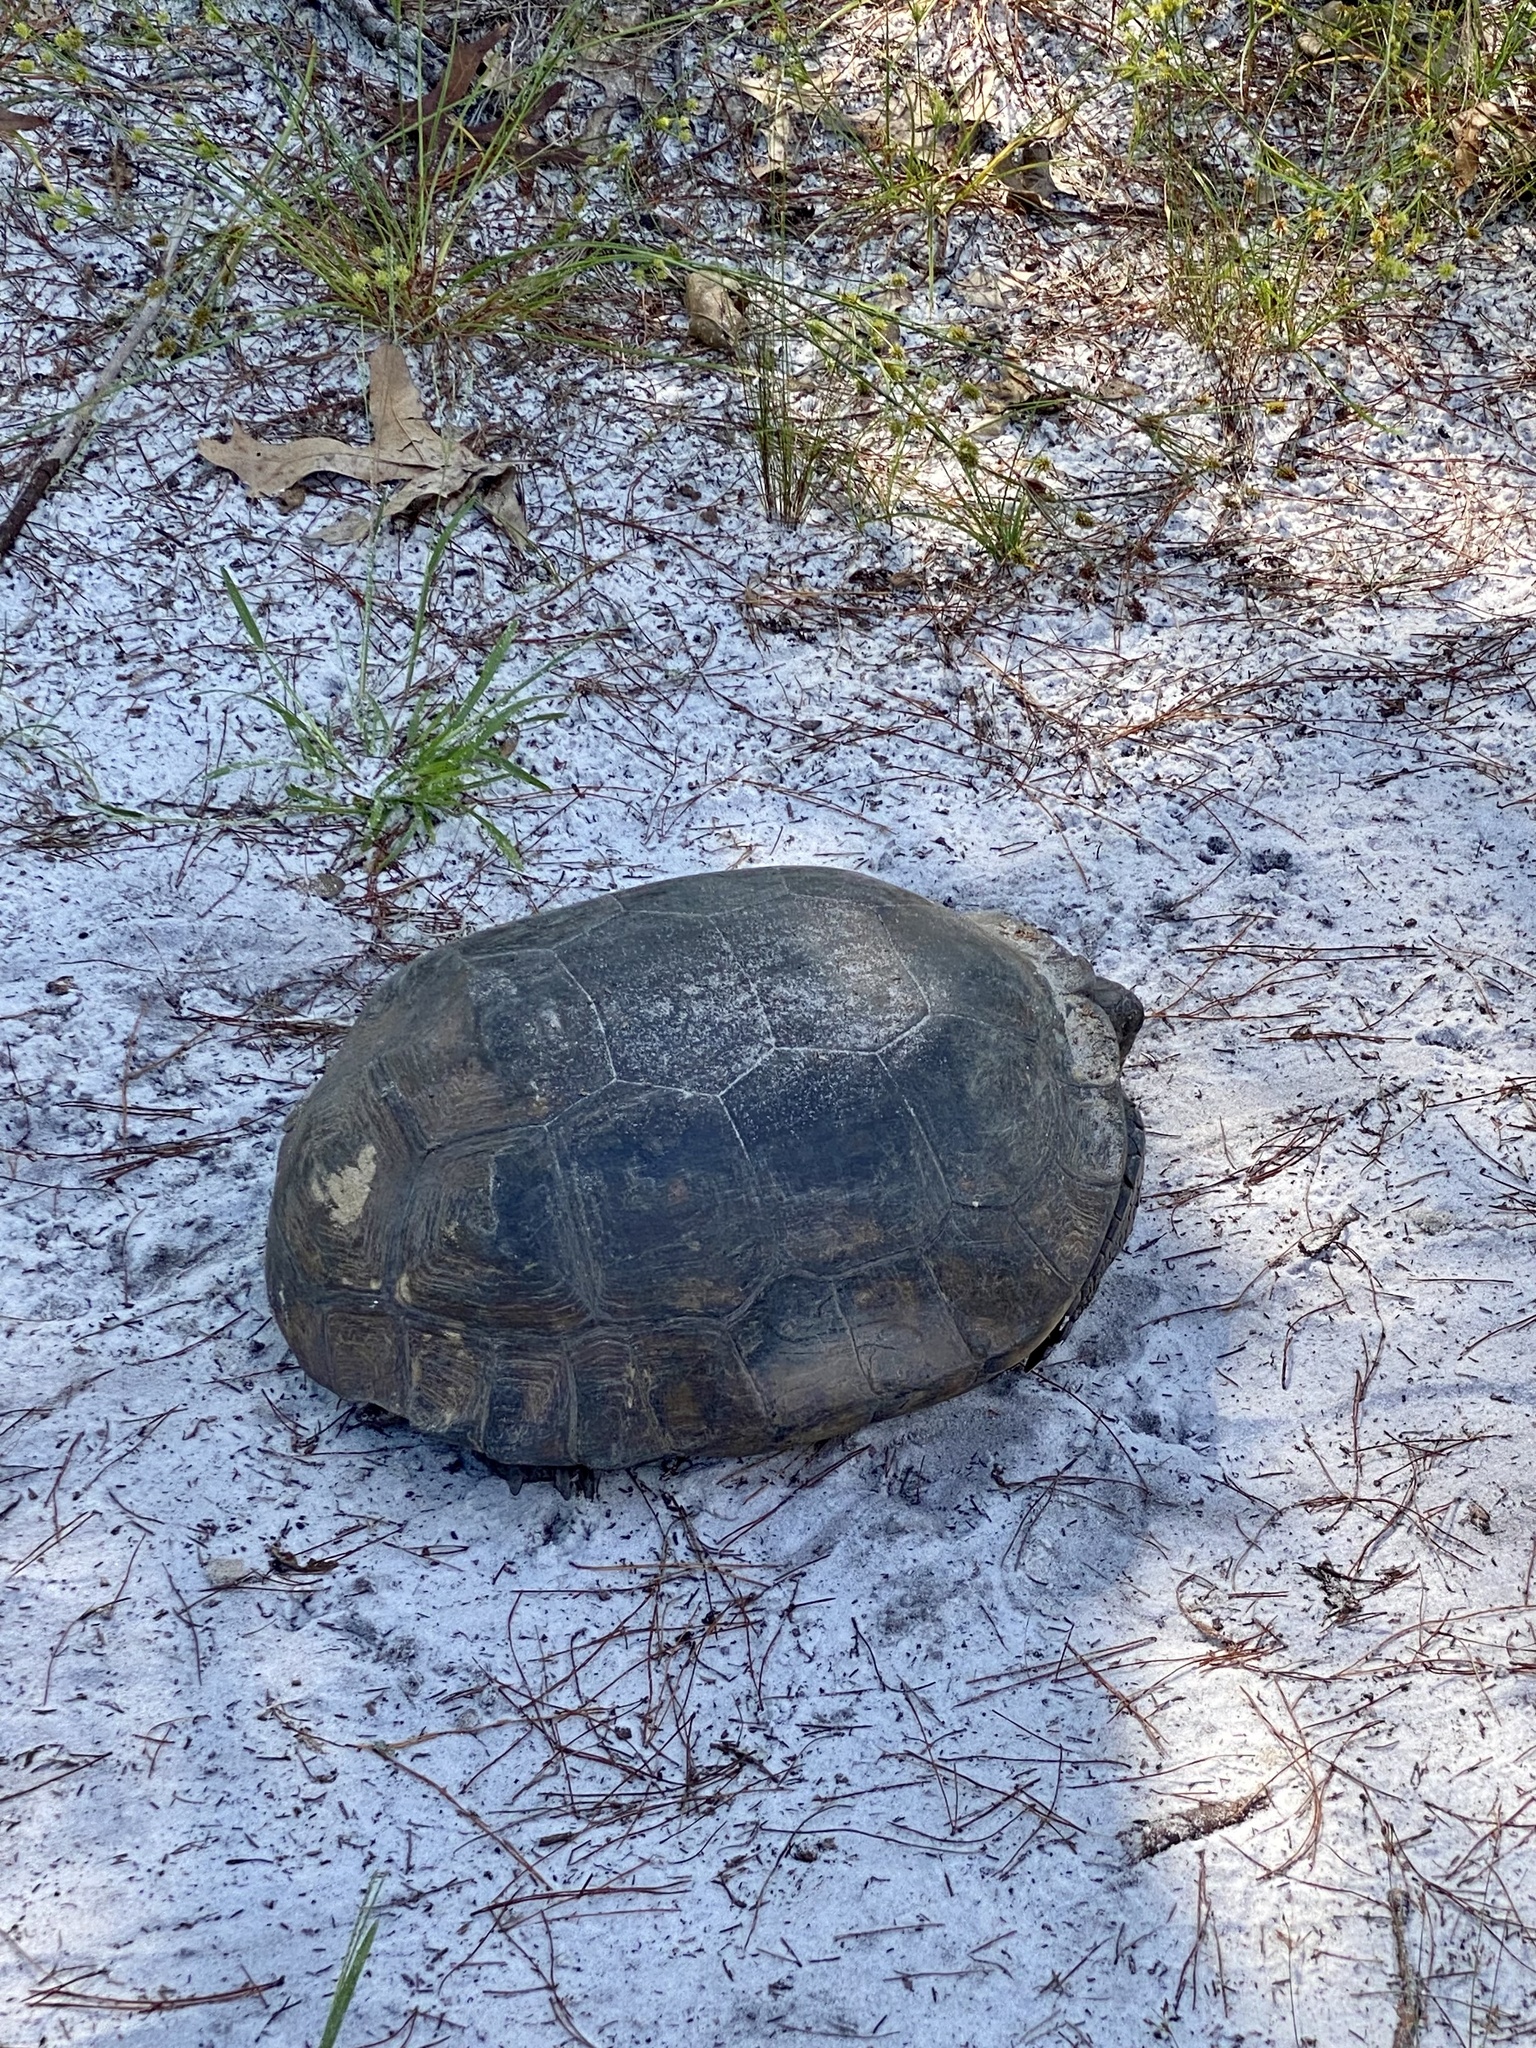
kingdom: Animalia
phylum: Chordata
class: Testudines
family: Testudinidae
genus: Gopherus
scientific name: Gopherus polyphemus
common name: Florida gopher tortoise
